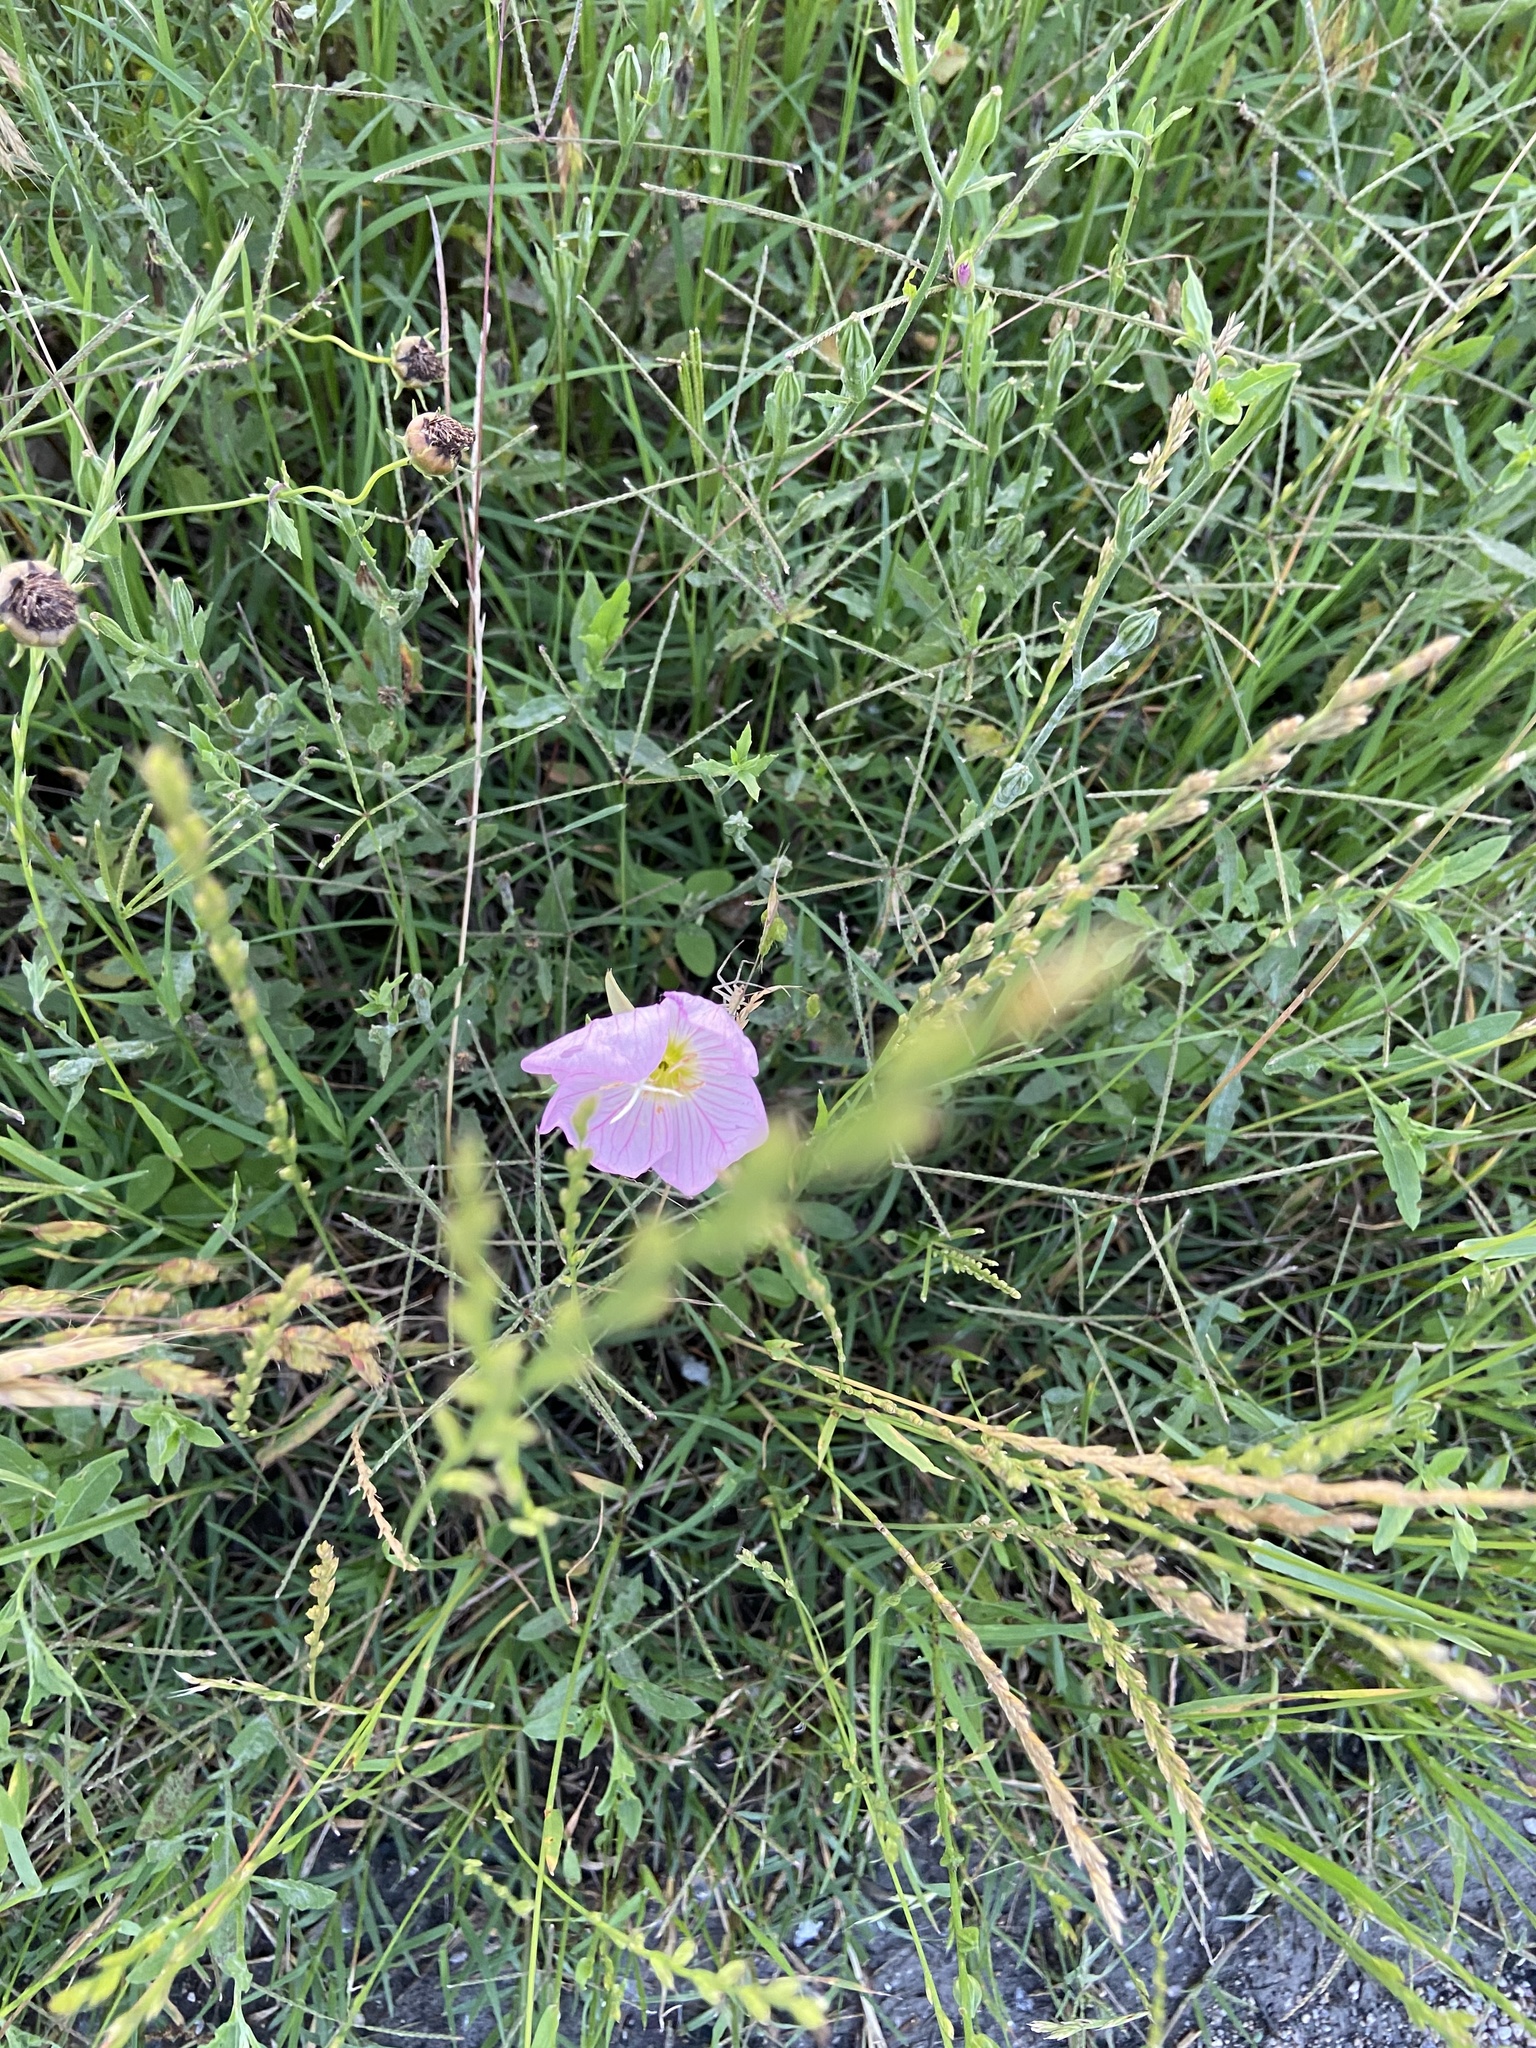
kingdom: Plantae
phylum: Tracheophyta
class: Magnoliopsida
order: Myrtales
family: Onagraceae
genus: Oenothera
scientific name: Oenothera speciosa
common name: White evening-primrose
